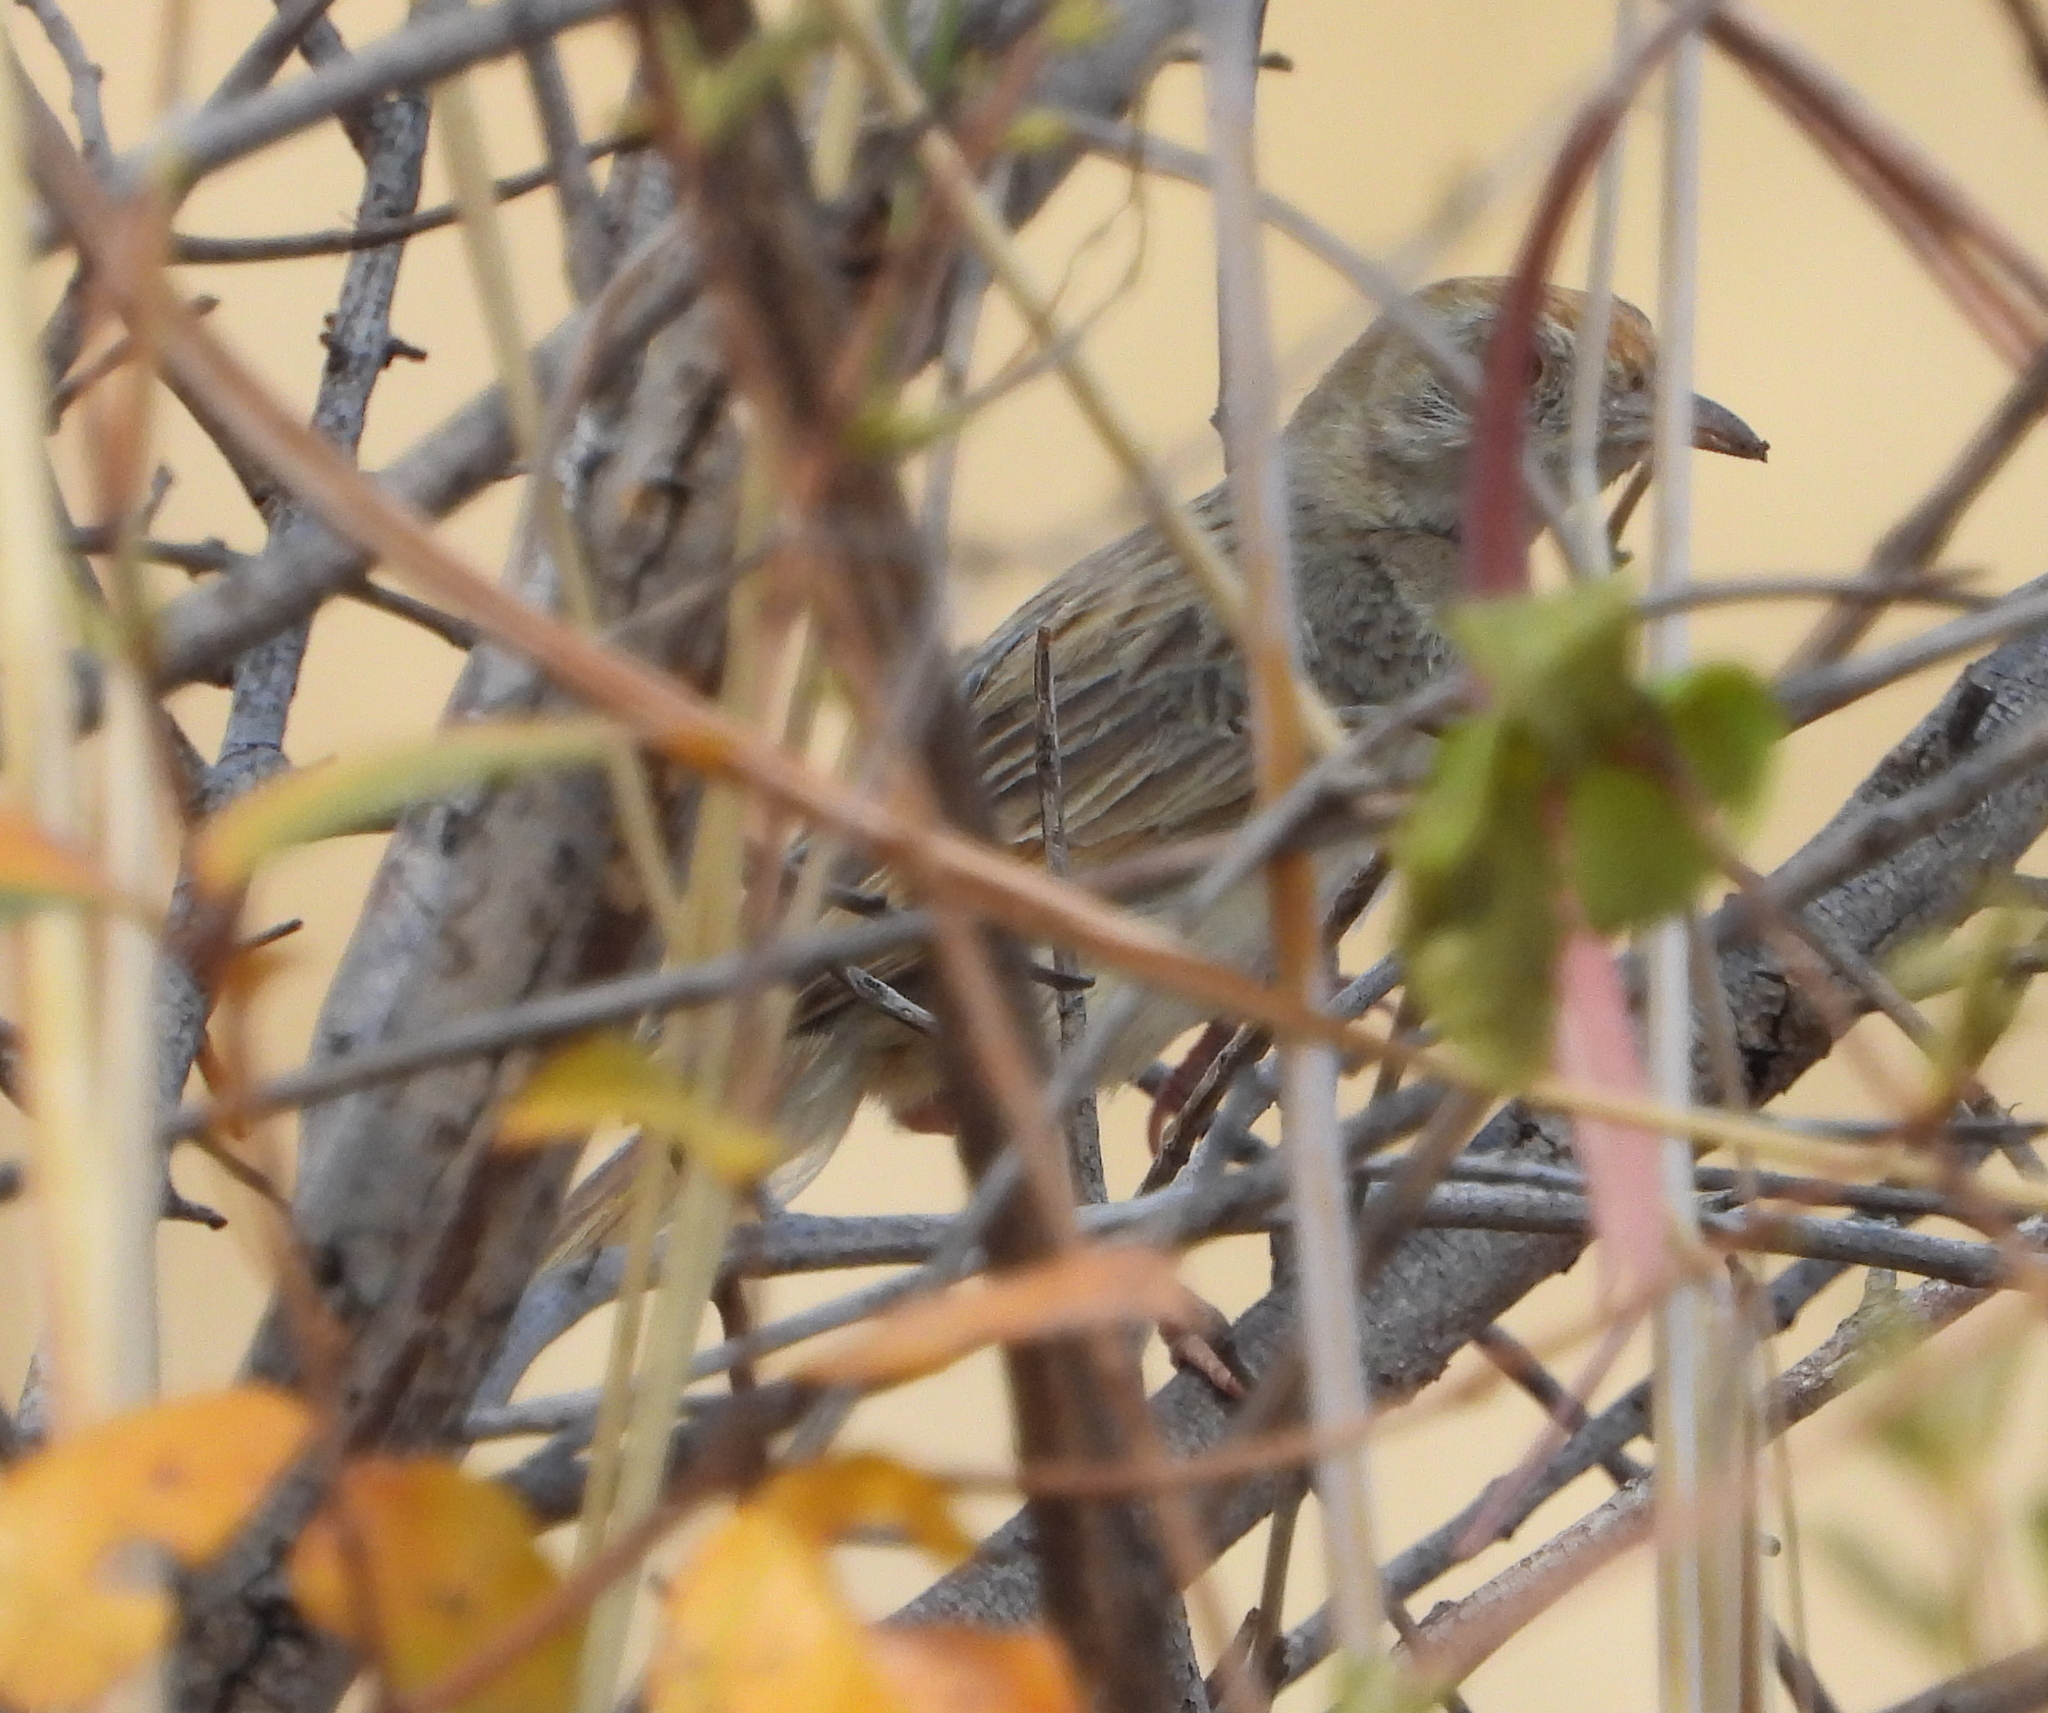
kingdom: Animalia
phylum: Chordata
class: Aves
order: Passeriformes
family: Cisticolidae
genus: Cisticola
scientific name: Cisticola chiniana
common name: Rattling cisticola
